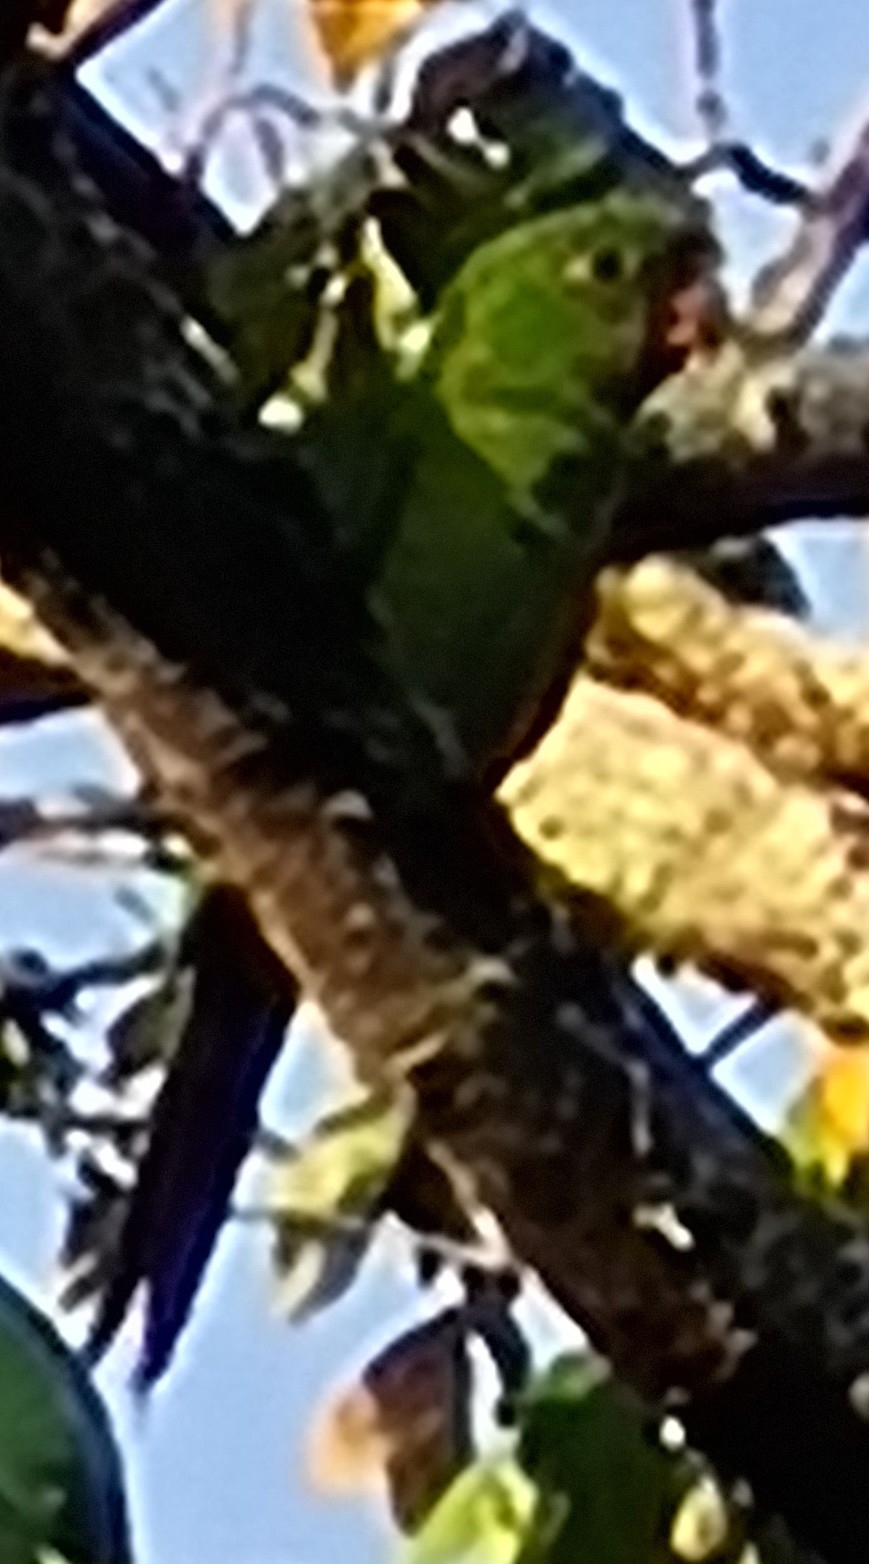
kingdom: Animalia
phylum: Chordata
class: Aves
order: Psittaciformes
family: Psittacidae
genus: Aratinga
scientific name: Aratinga leucophthalma
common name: White-eyed parakeet
